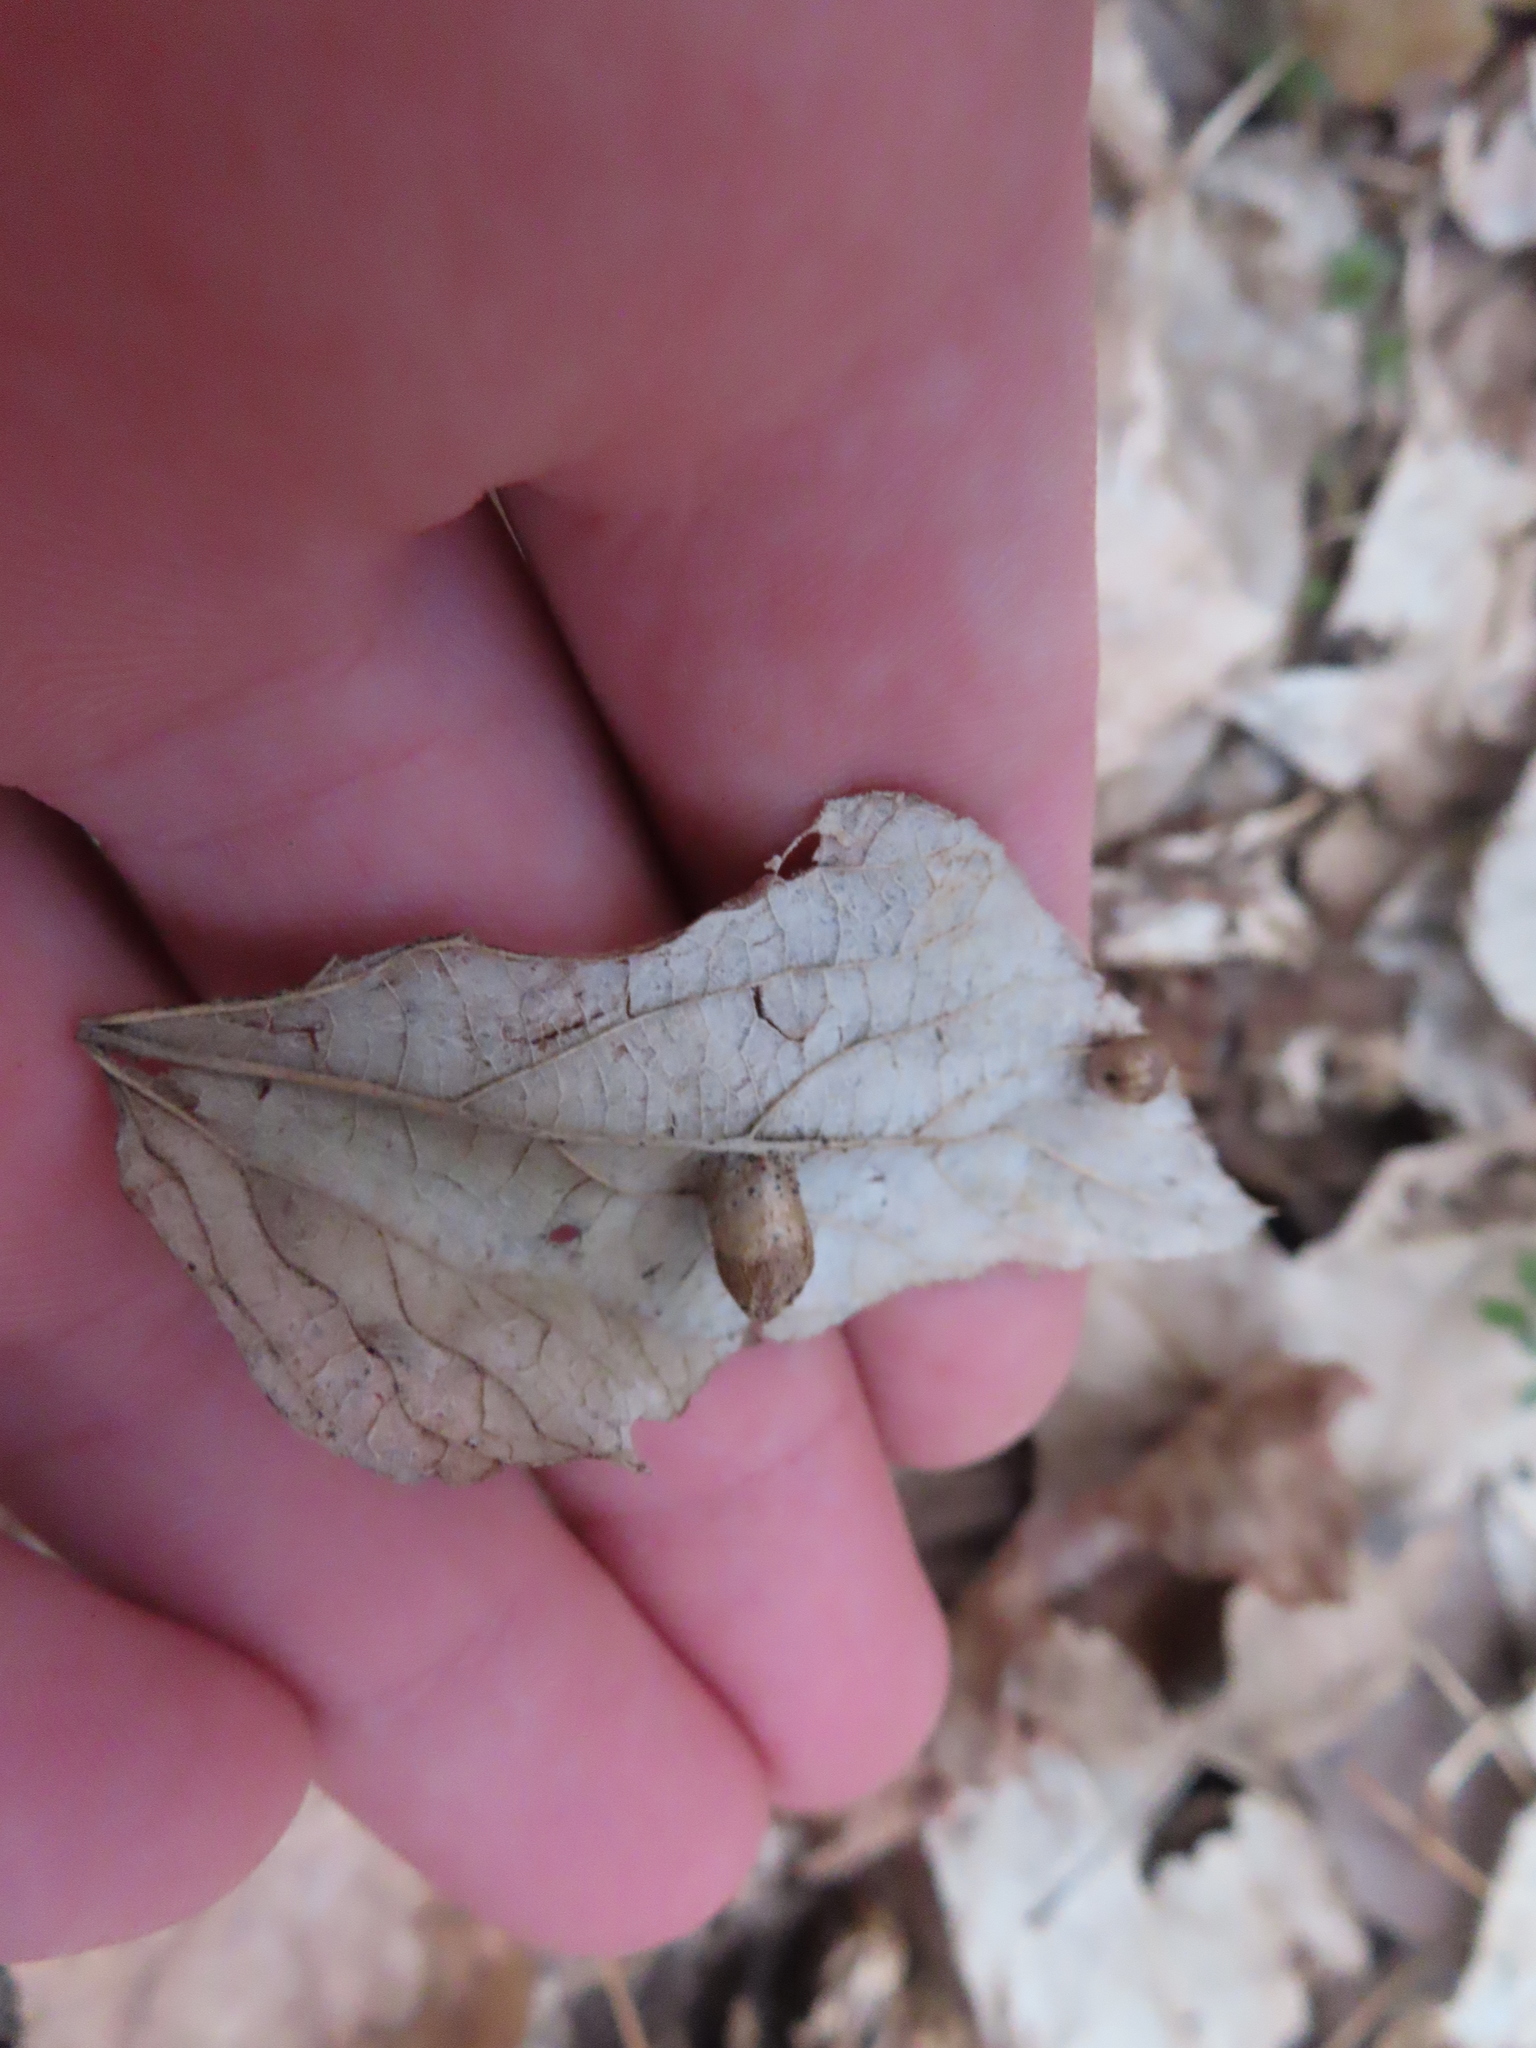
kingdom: Animalia
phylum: Arthropoda
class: Insecta
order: Hemiptera
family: Aphalaridae
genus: Pachypsylla
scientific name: Pachypsylla celtidismamma
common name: Hackberry nipplegall psyllid
